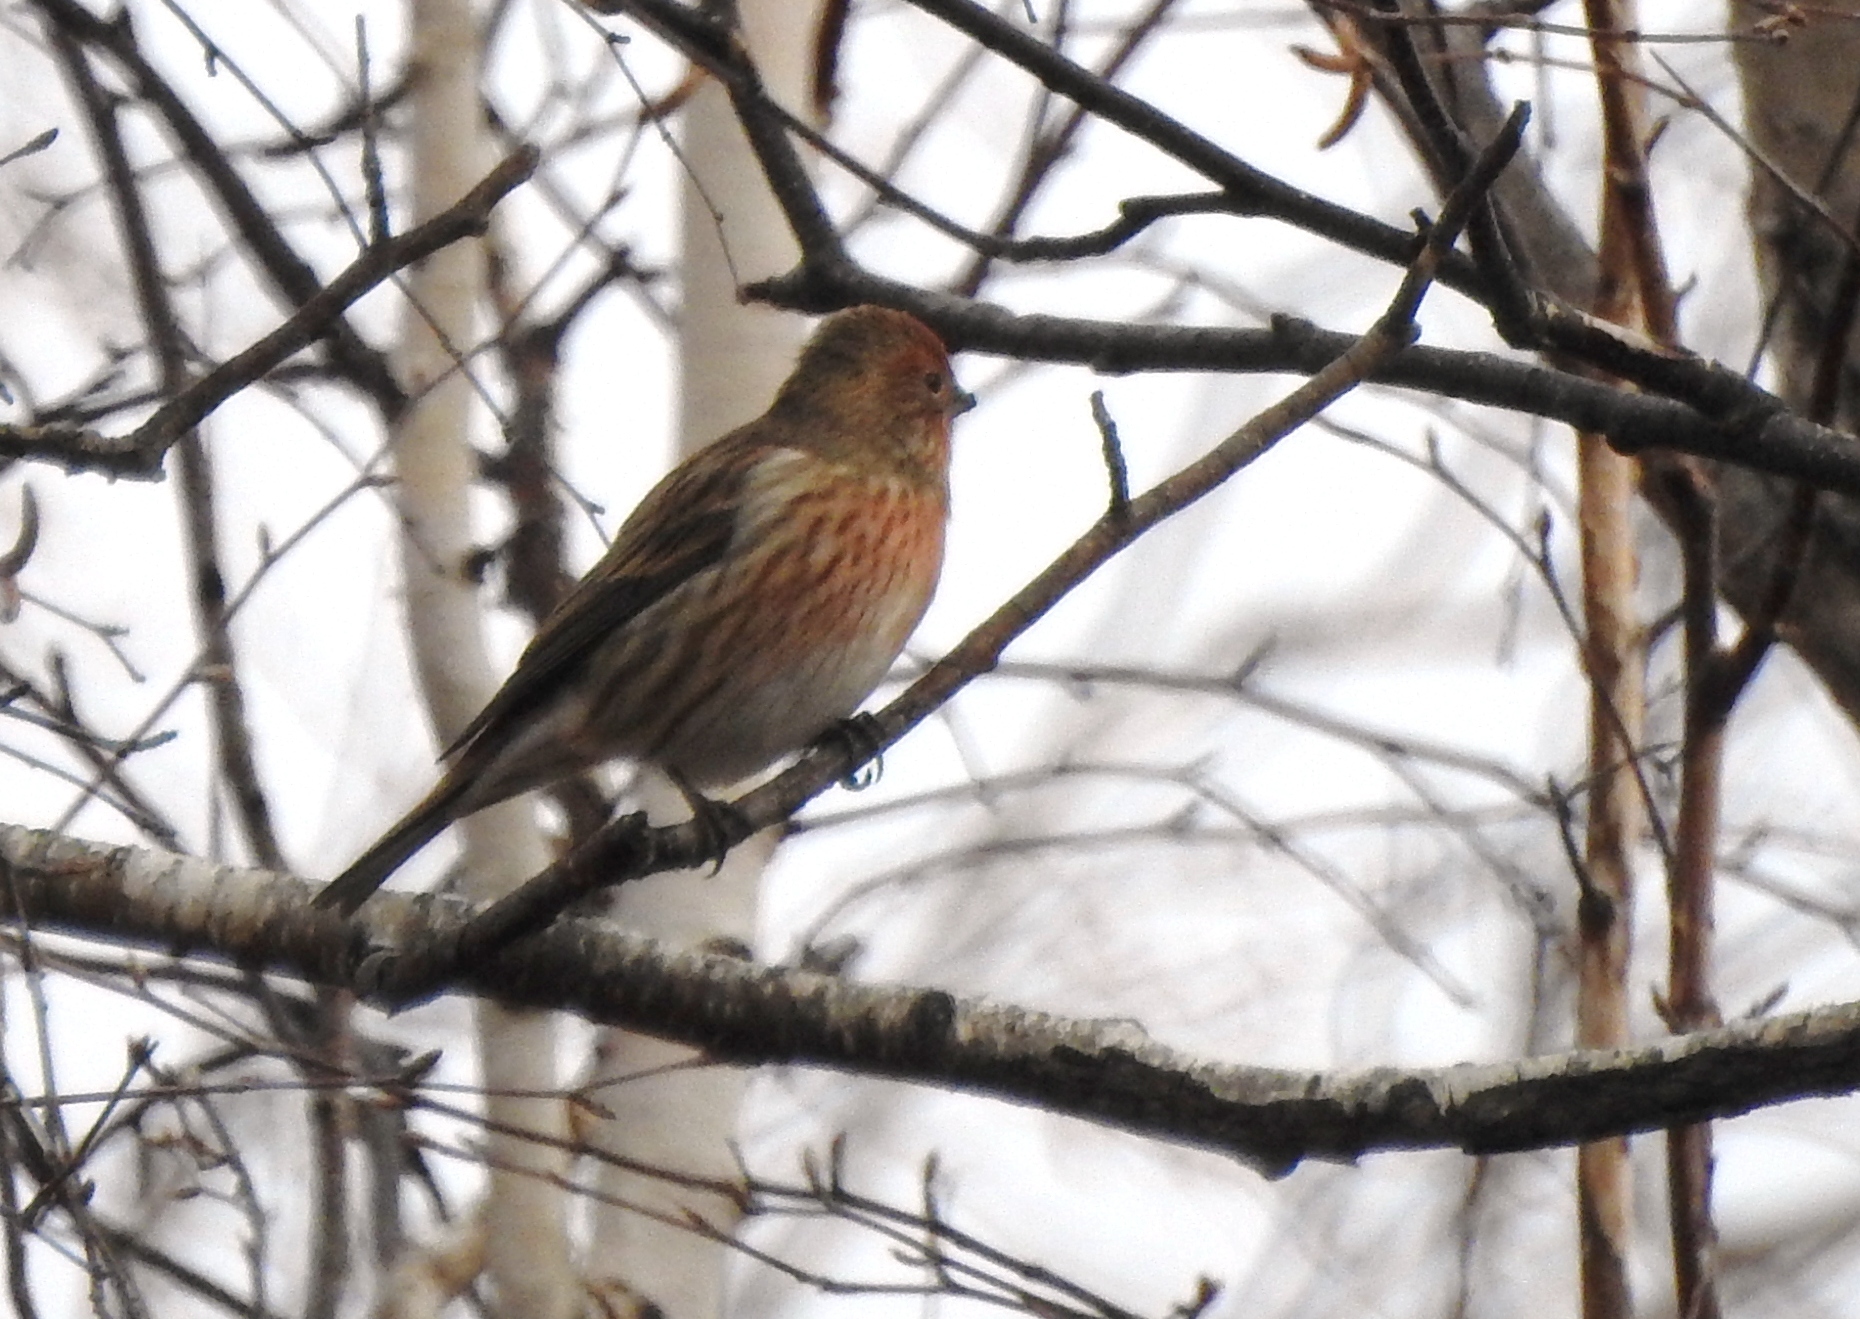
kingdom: Animalia
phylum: Chordata
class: Aves
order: Passeriformes
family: Fringillidae
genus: Carpodacus
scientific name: Carpodacus roseus
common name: Pallas's rosefinch
